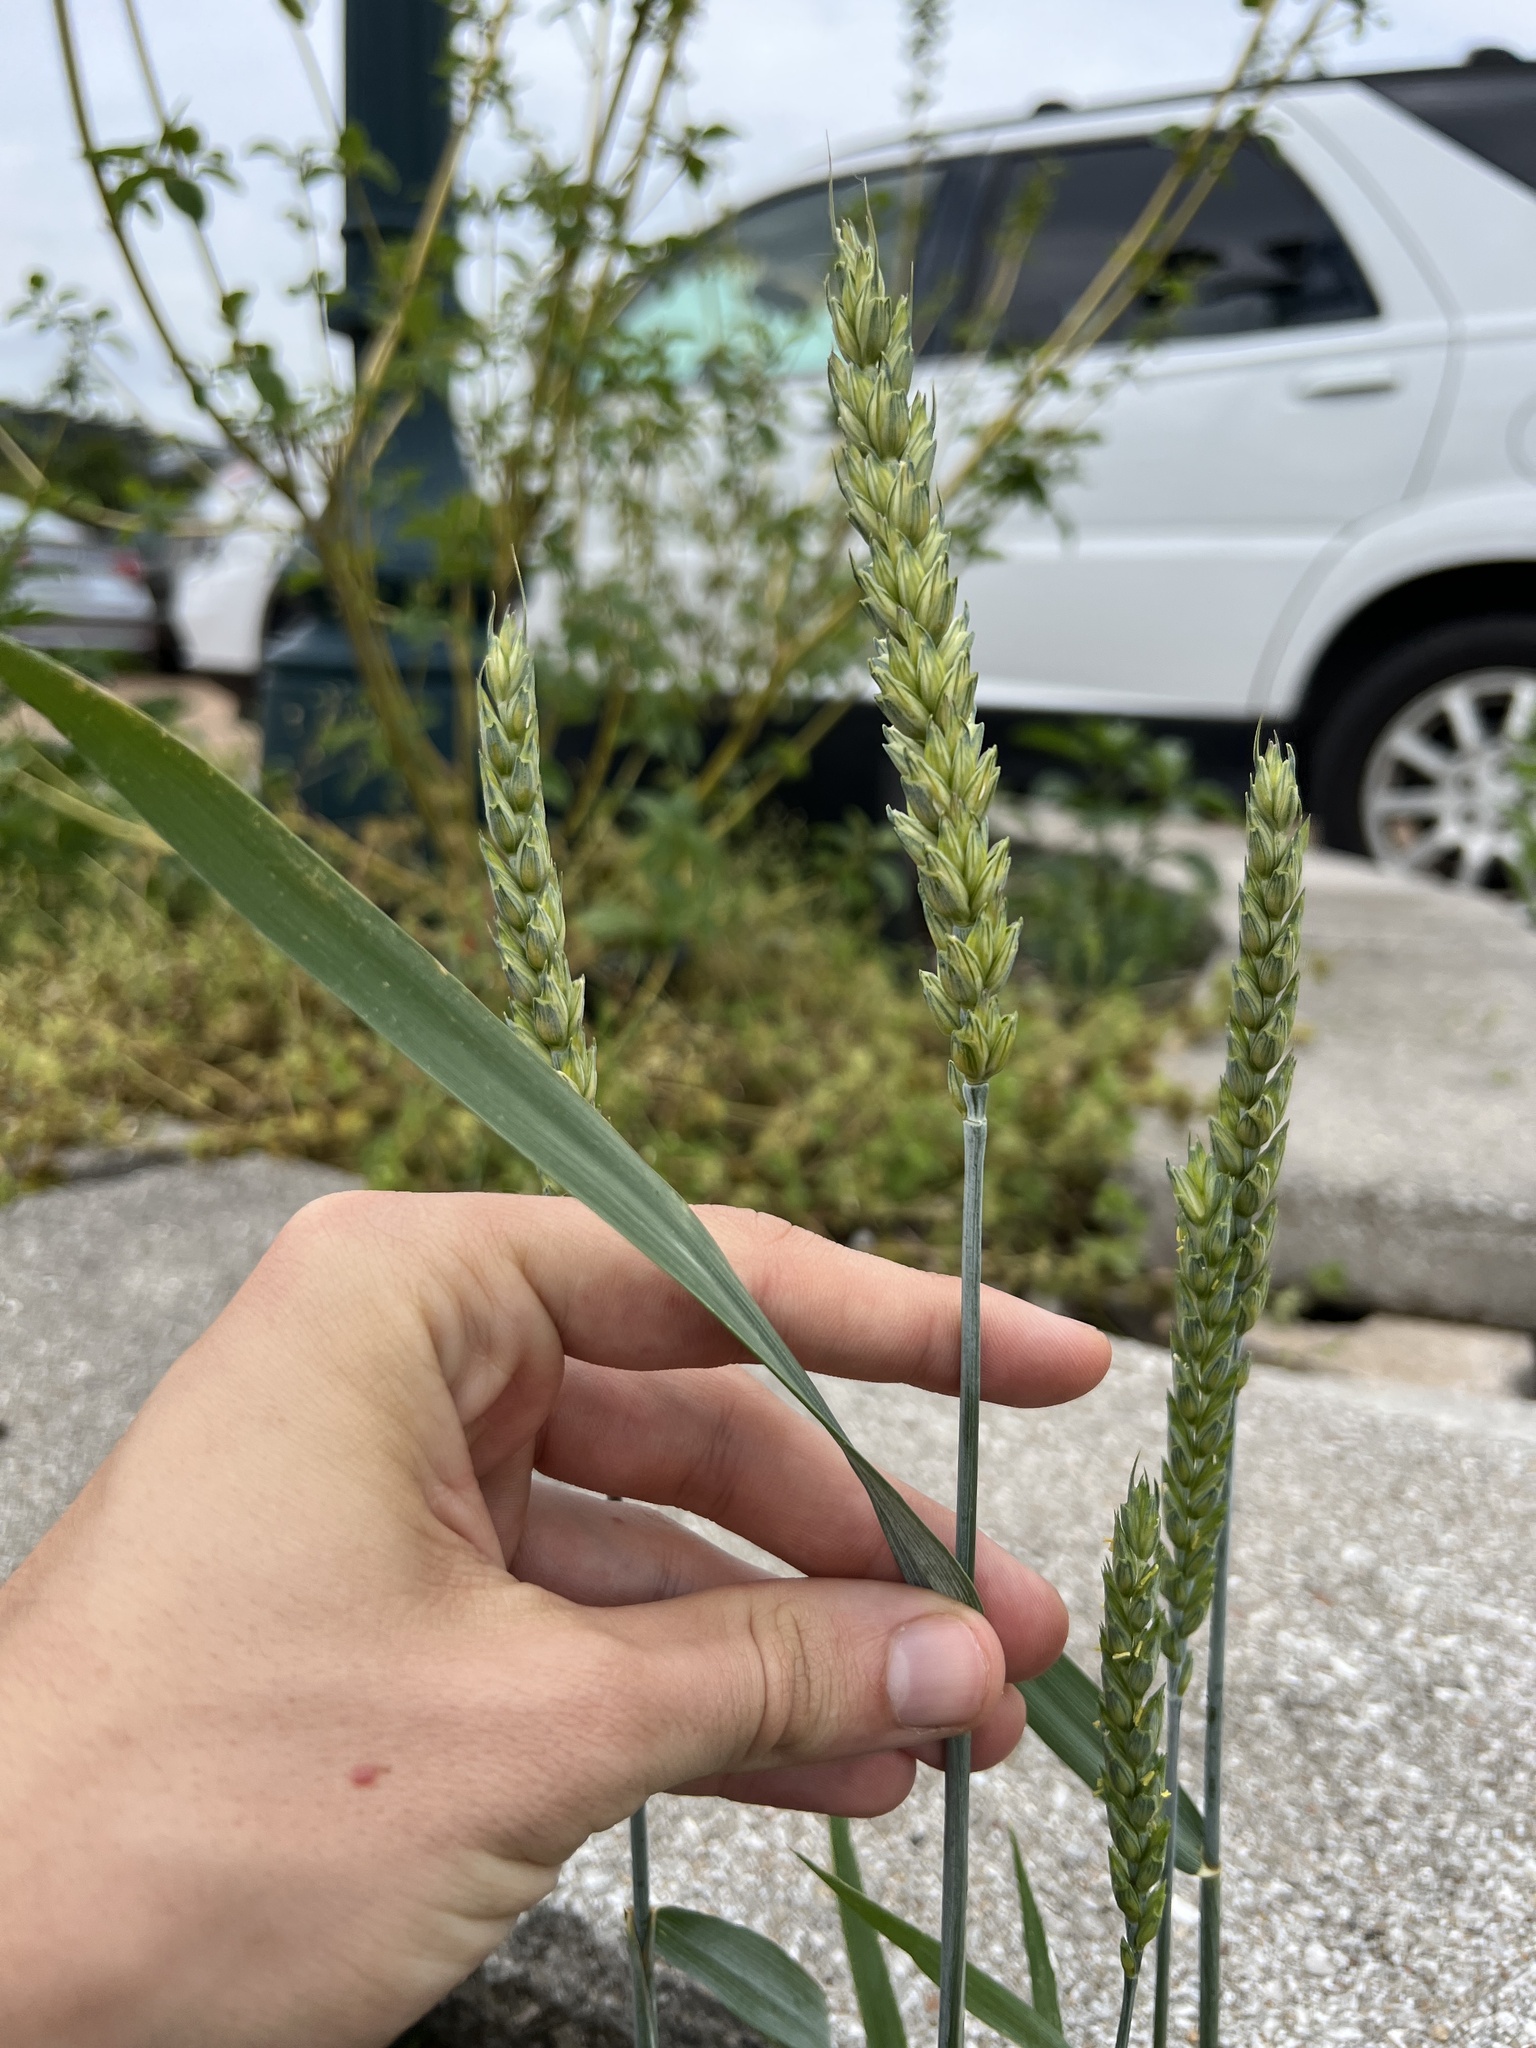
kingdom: Plantae
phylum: Tracheophyta
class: Liliopsida
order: Poales
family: Poaceae
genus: Triticum
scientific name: Triticum aestivum
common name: Common wheat
